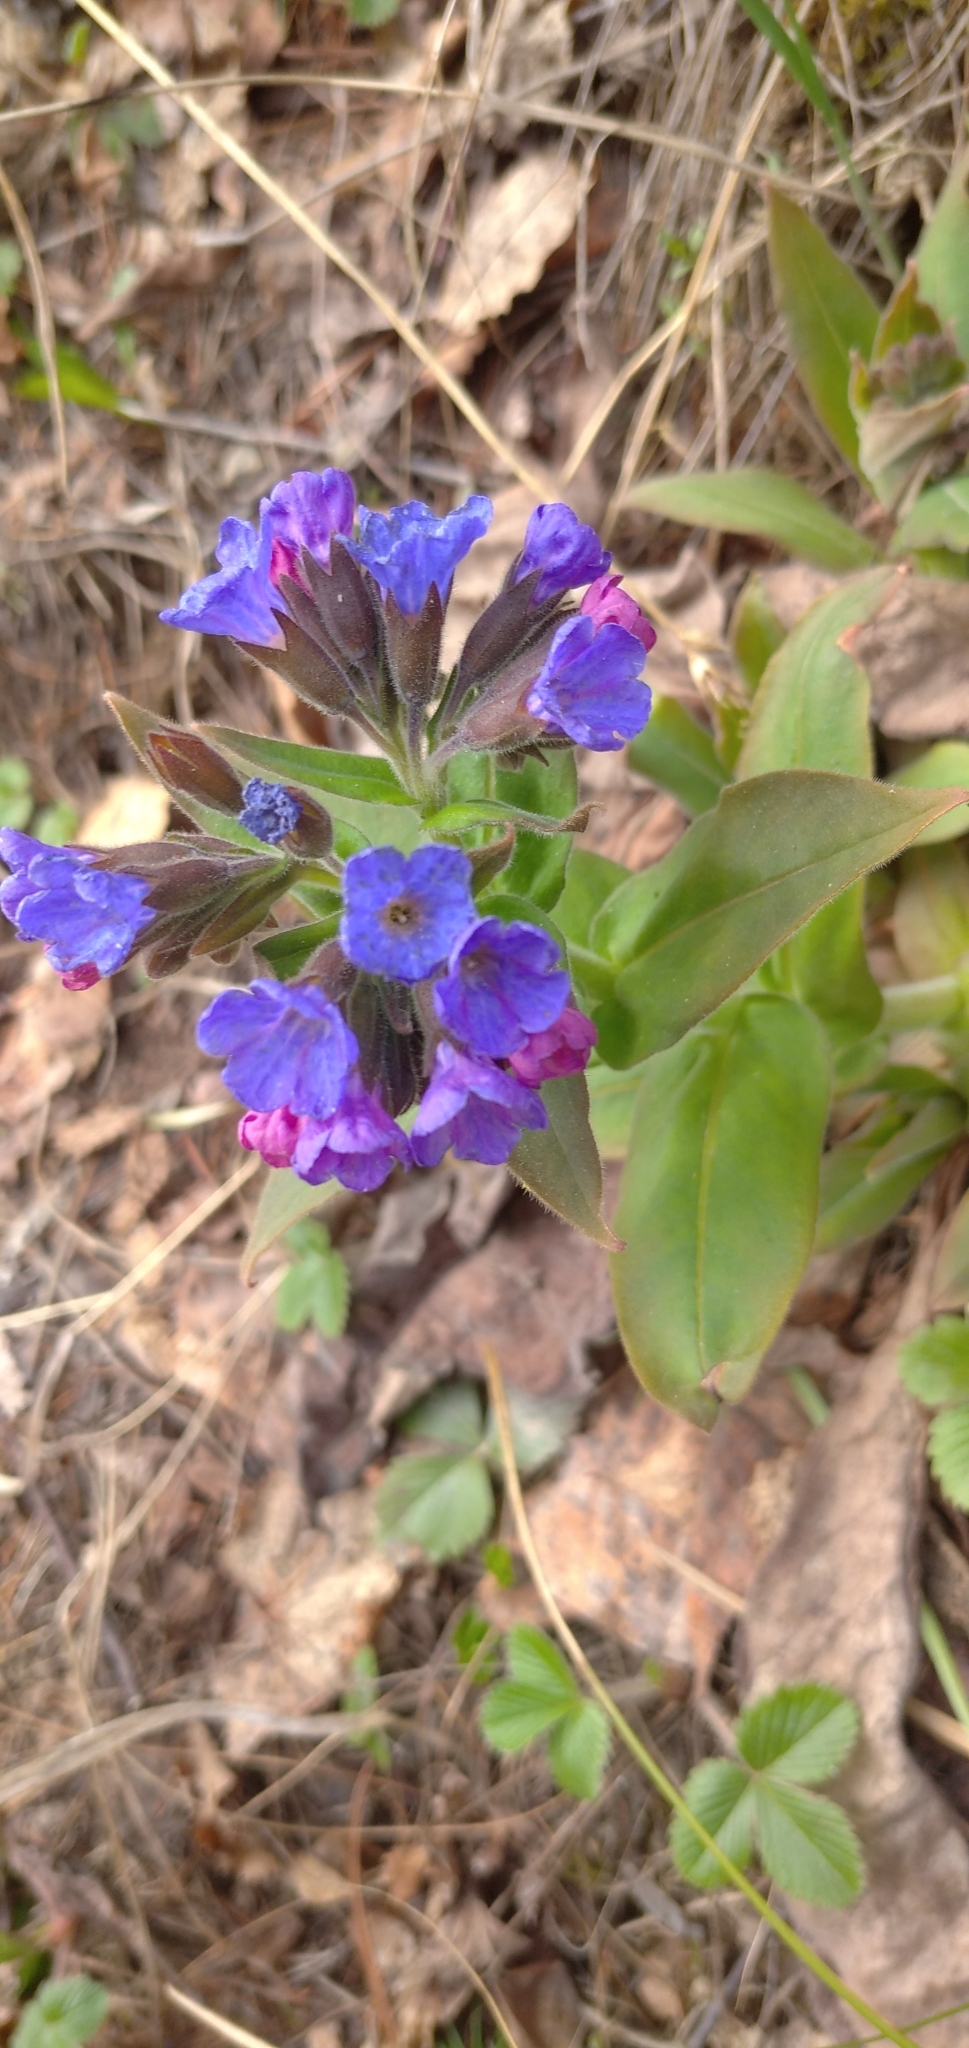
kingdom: Plantae
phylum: Tracheophyta
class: Magnoliopsida
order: Boraginales
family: Boraginaceae
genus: Pulmonaria
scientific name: Pulmonaria mollis
